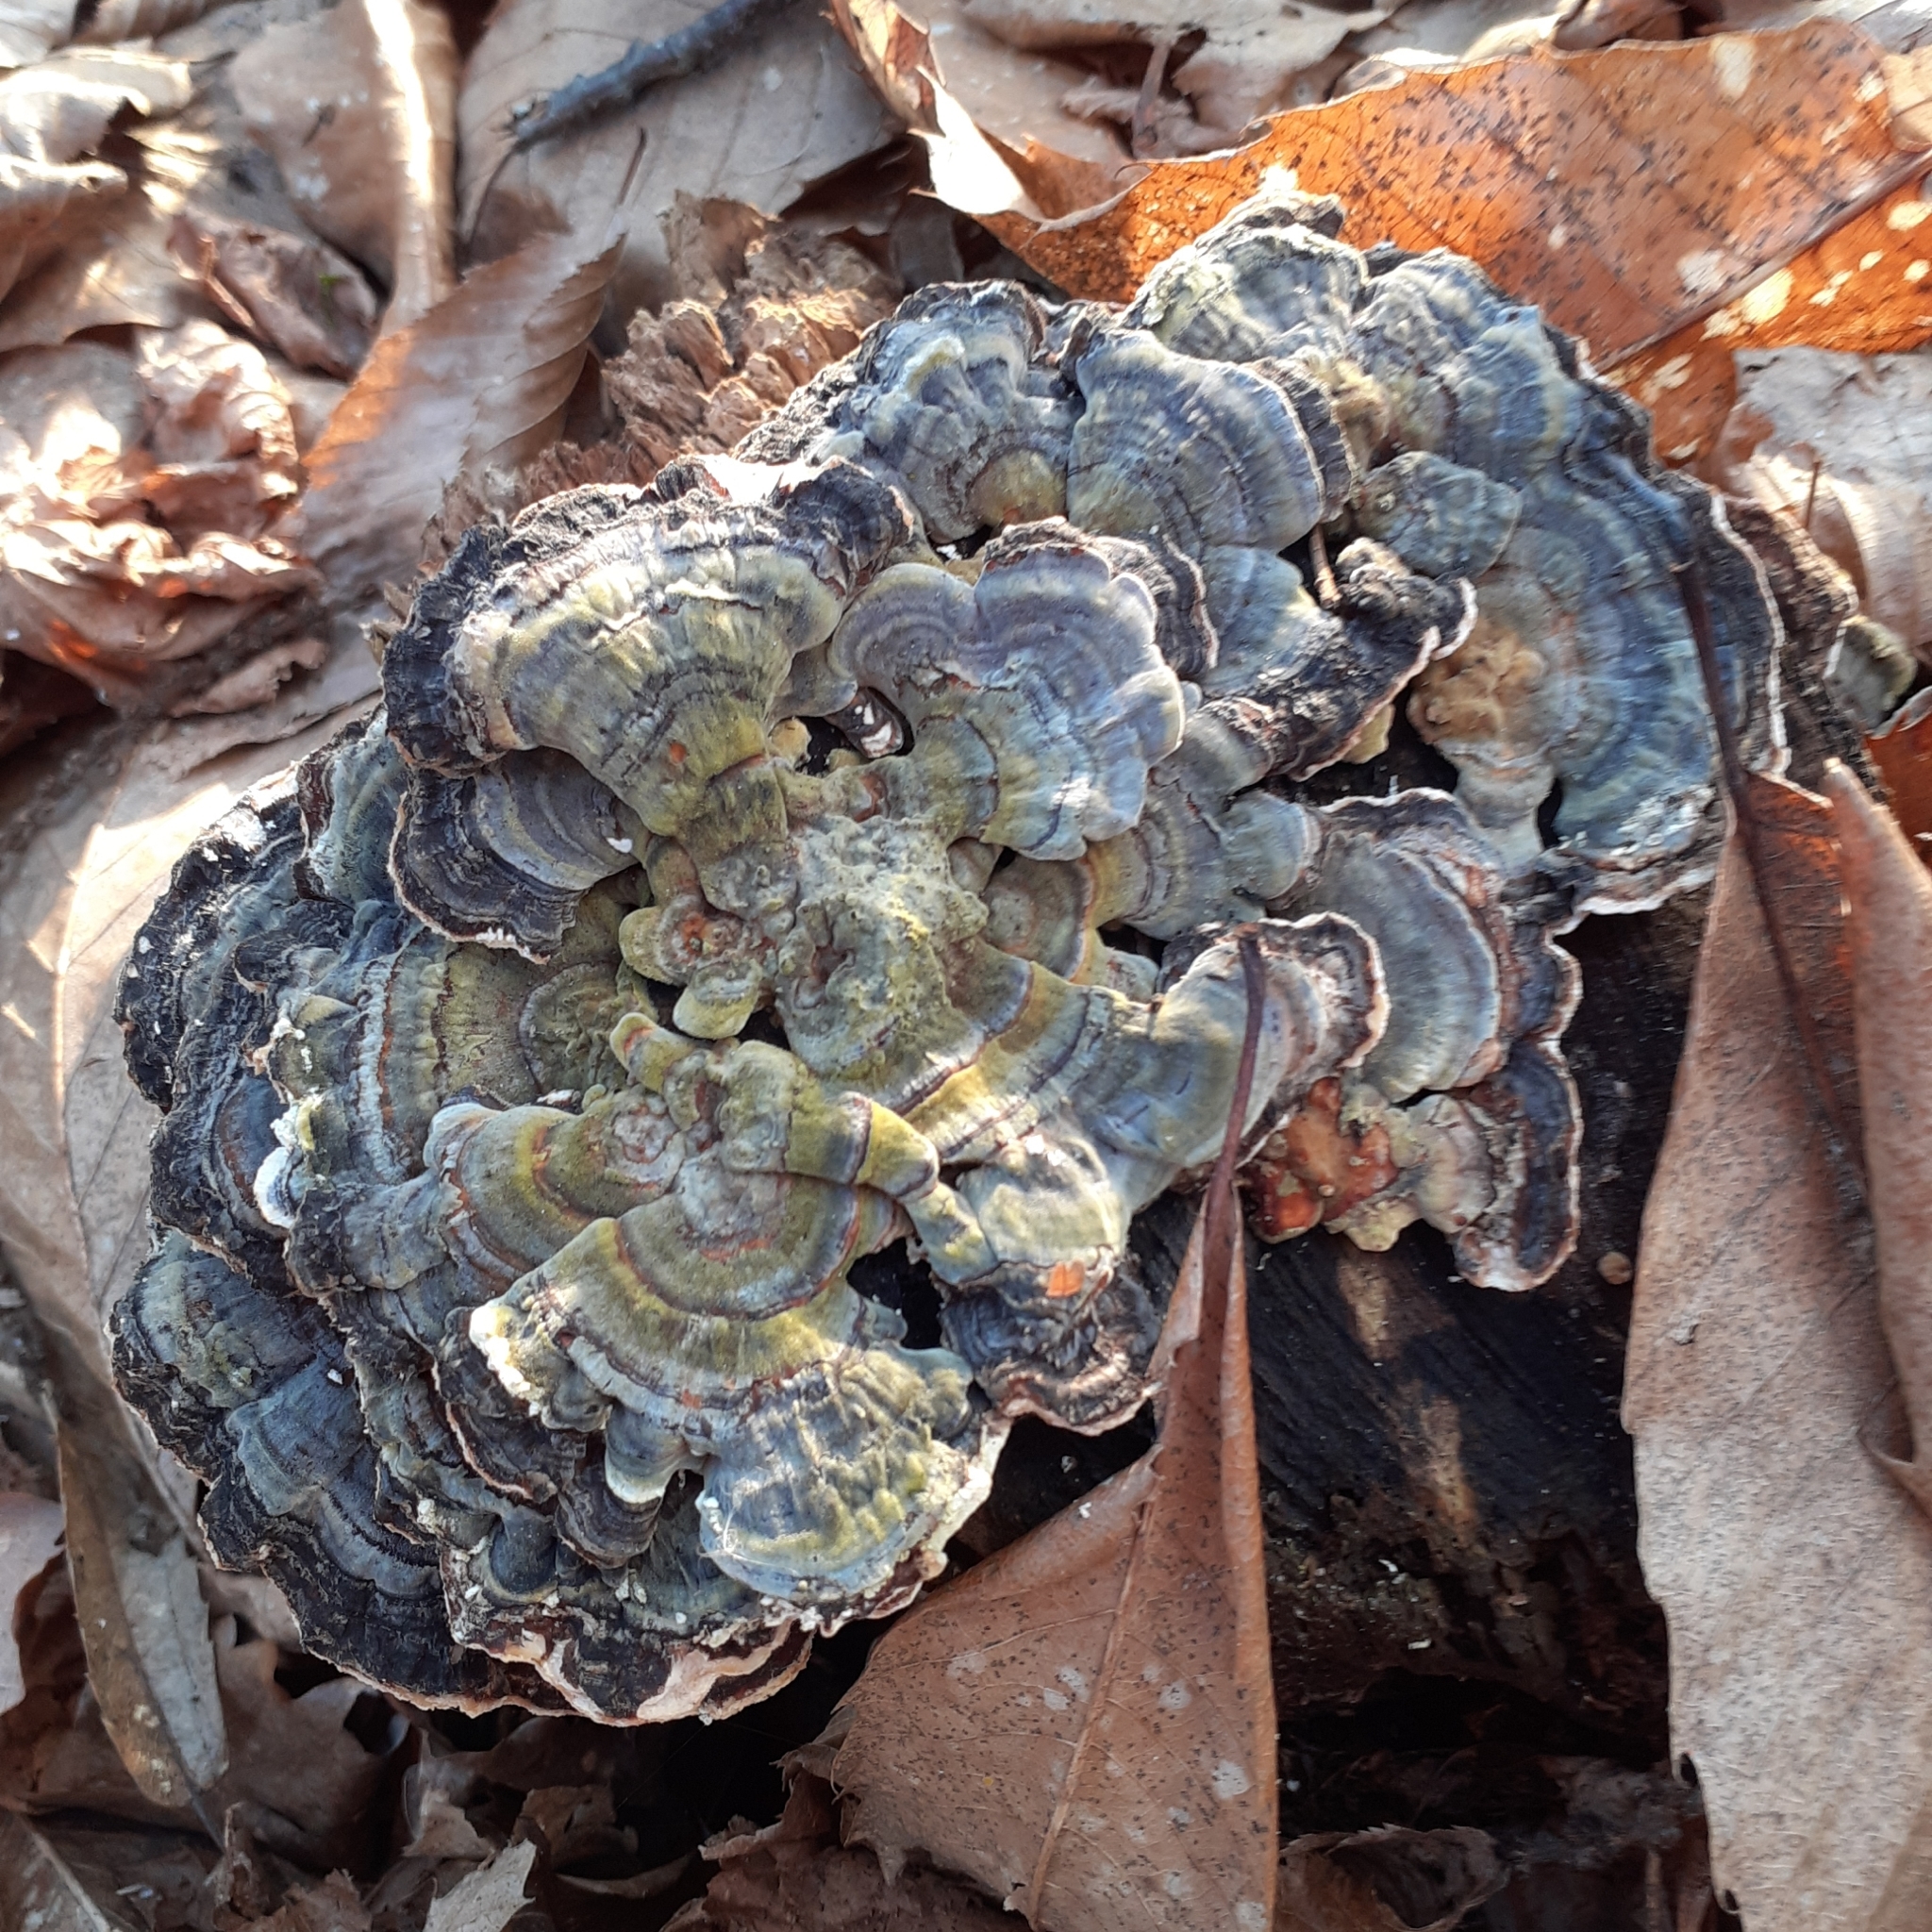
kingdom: Fungi
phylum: Basidiomycota
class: Agaricomycetes
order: Polyporales
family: Polyporaceae
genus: Trametes
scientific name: Trametes versicolor
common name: Turkeytail
